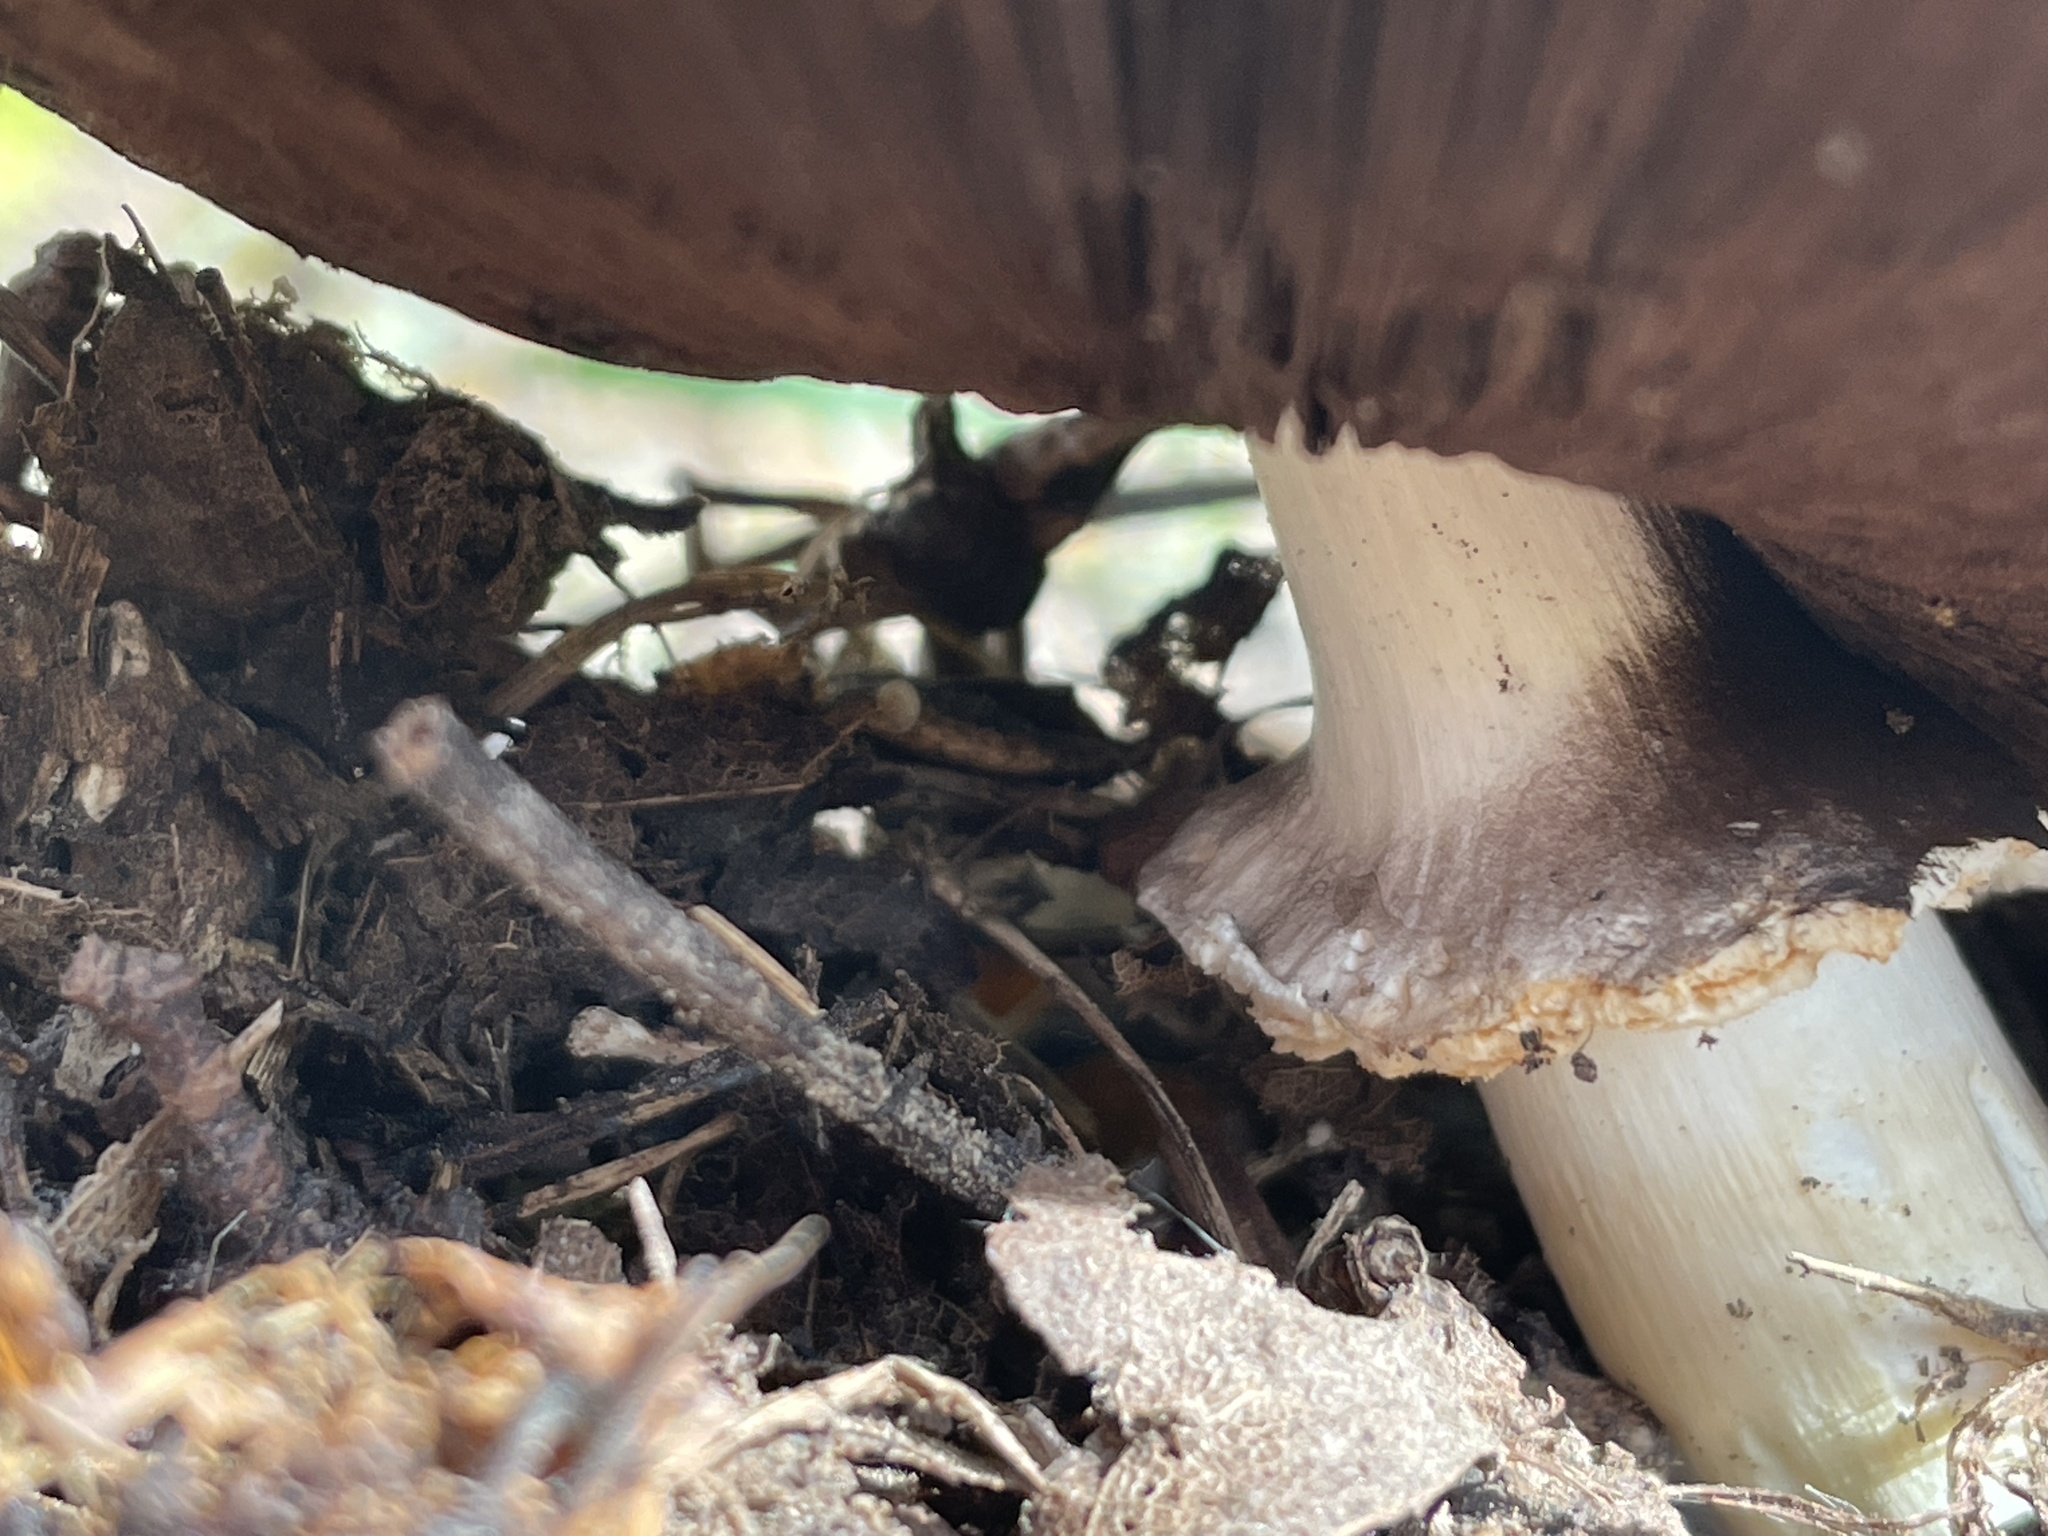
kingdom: Fungi
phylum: Basidiomycota
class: Agaricomycetes
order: Agaricales
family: Agaricaceae
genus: Agaricus
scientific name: Agaricus
